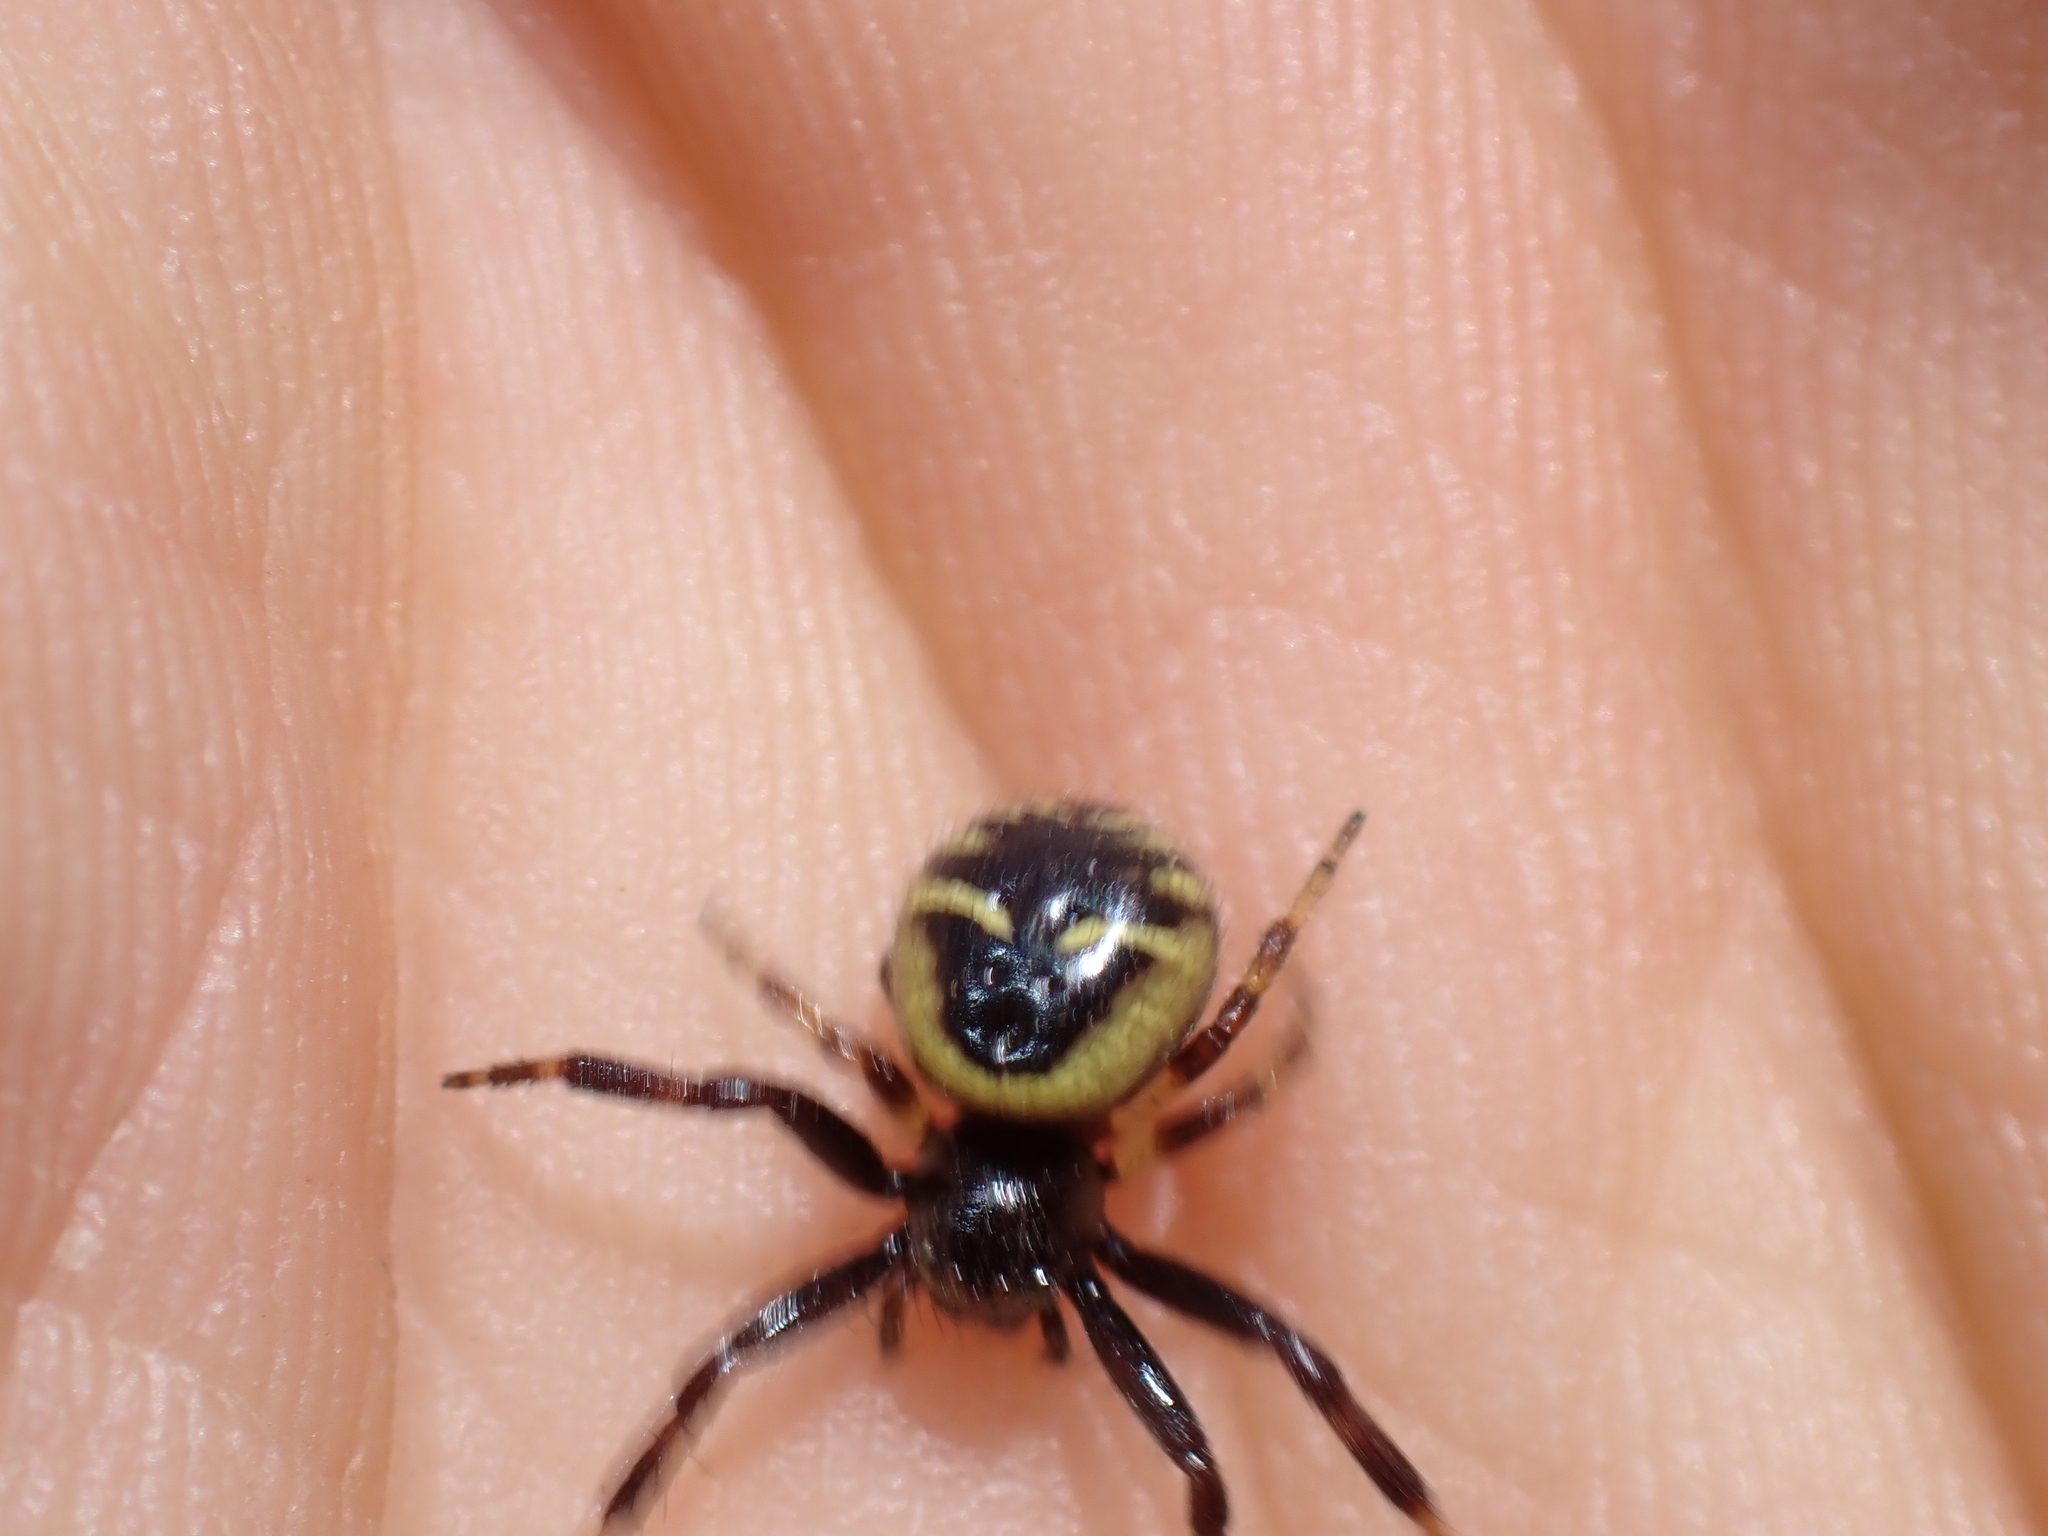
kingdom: Animalia
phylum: Arthropoda
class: Arachnida
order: Araneae
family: Thomisidae
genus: Synema
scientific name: Synema globosum
